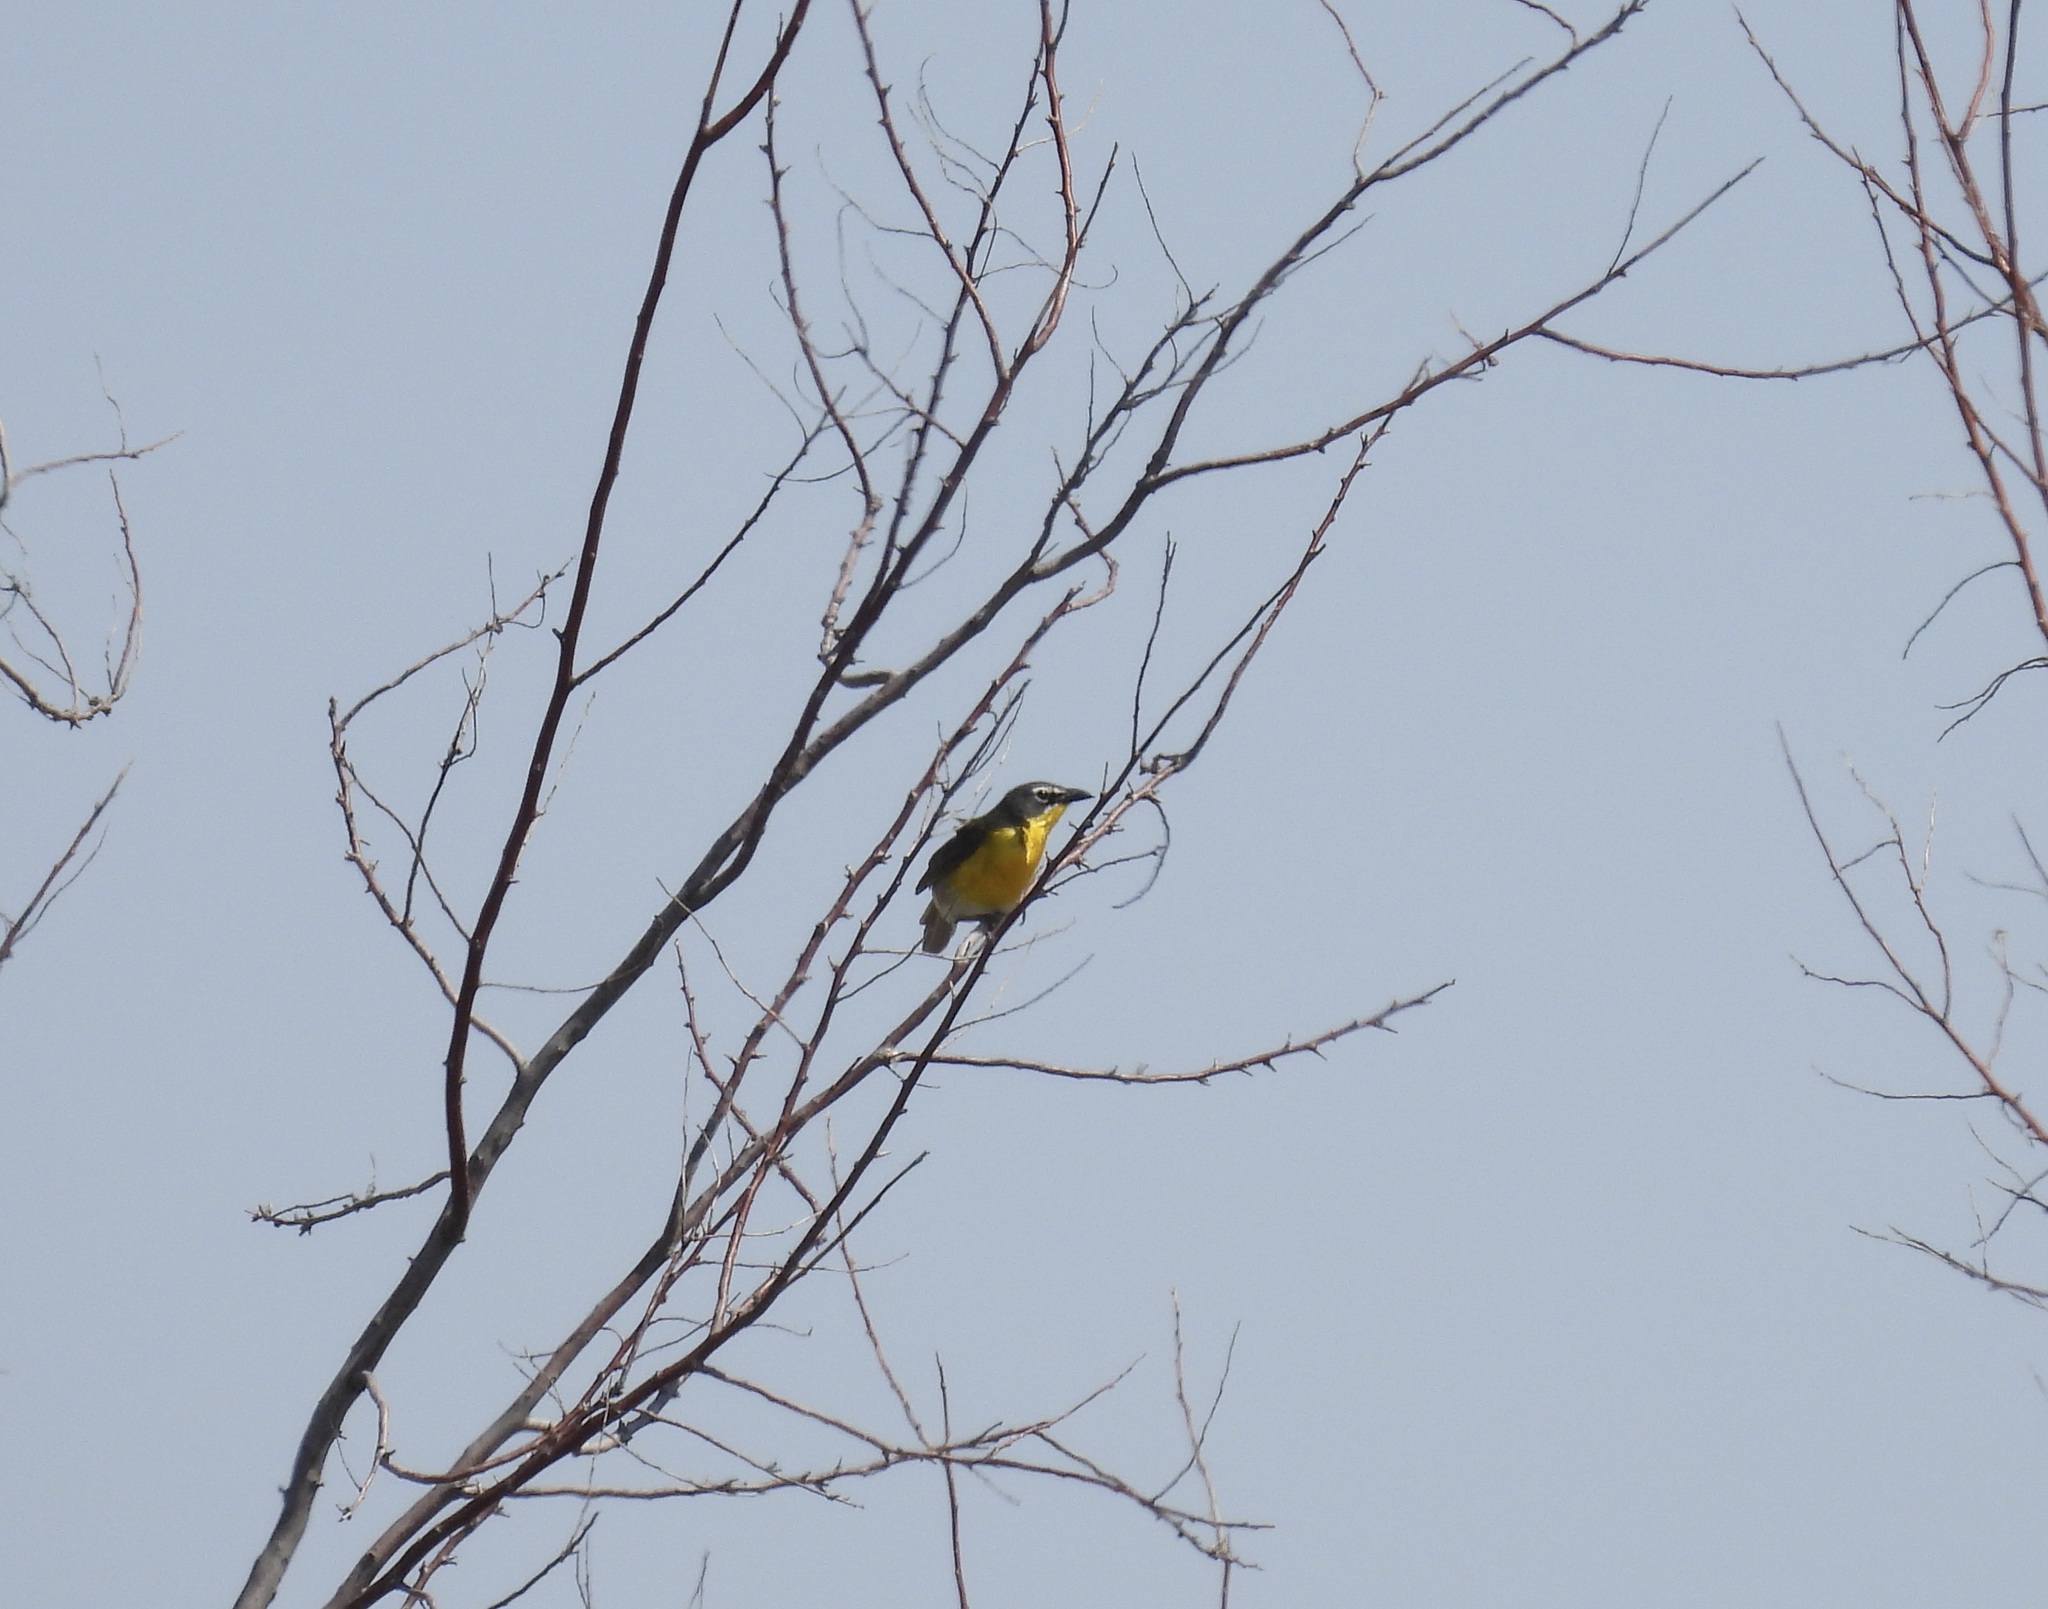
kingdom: Animalia
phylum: Chordata
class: Aves
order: Passeriformes
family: Parulidae
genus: Icteria
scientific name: Icteria virens
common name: Yellow-breasted chat
